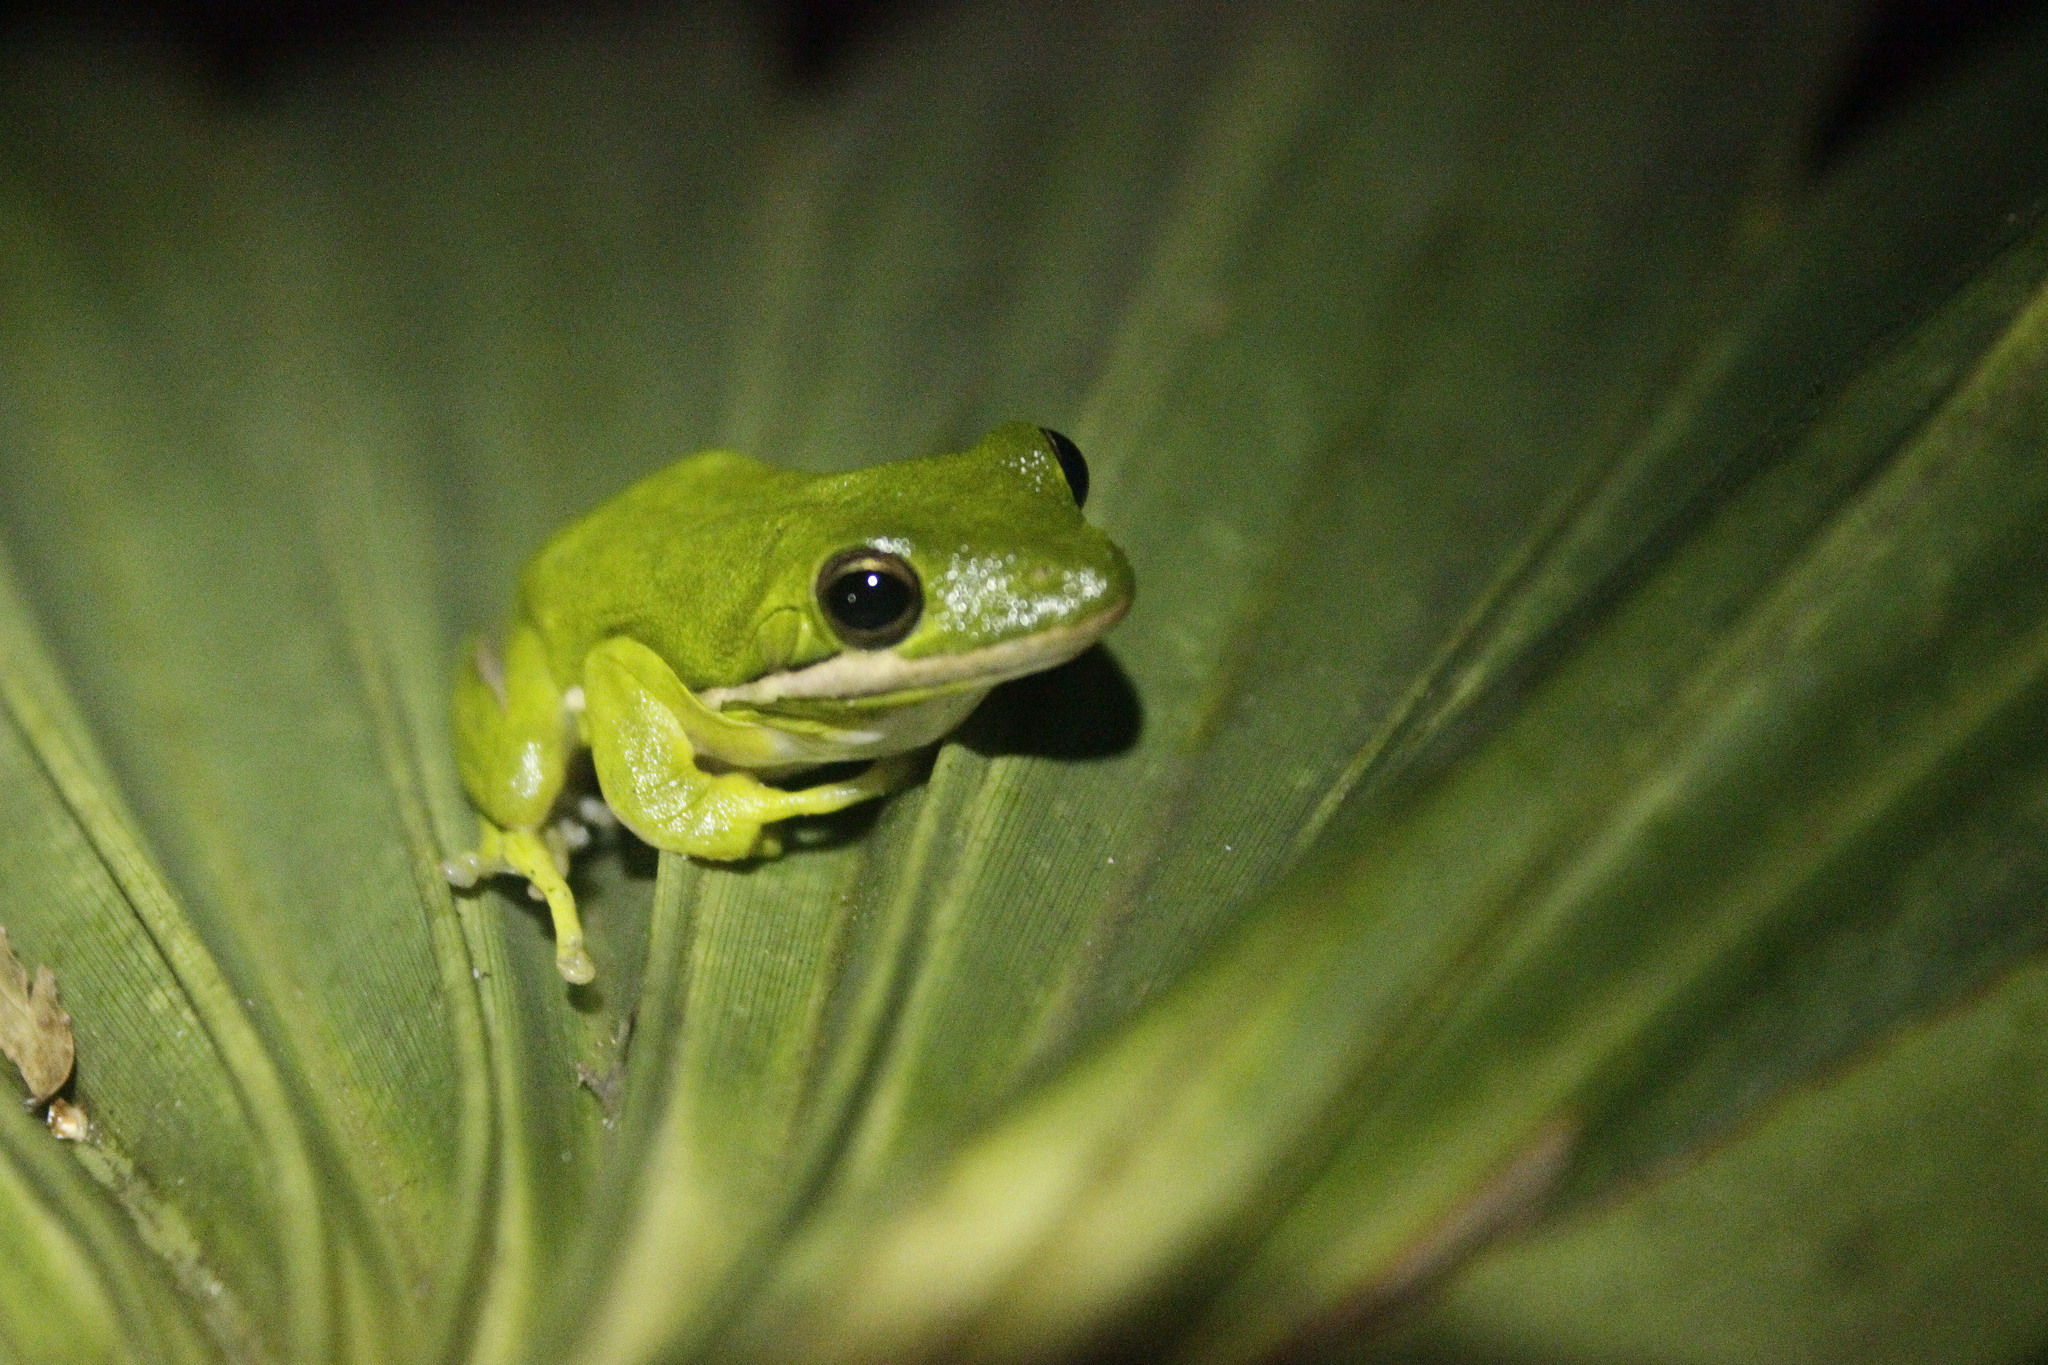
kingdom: Animalia
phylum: Chordata
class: Amphibia
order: Anura
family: Hylidae
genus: Dryophytes
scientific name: Dryophytes cinereus
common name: Green treefrog
